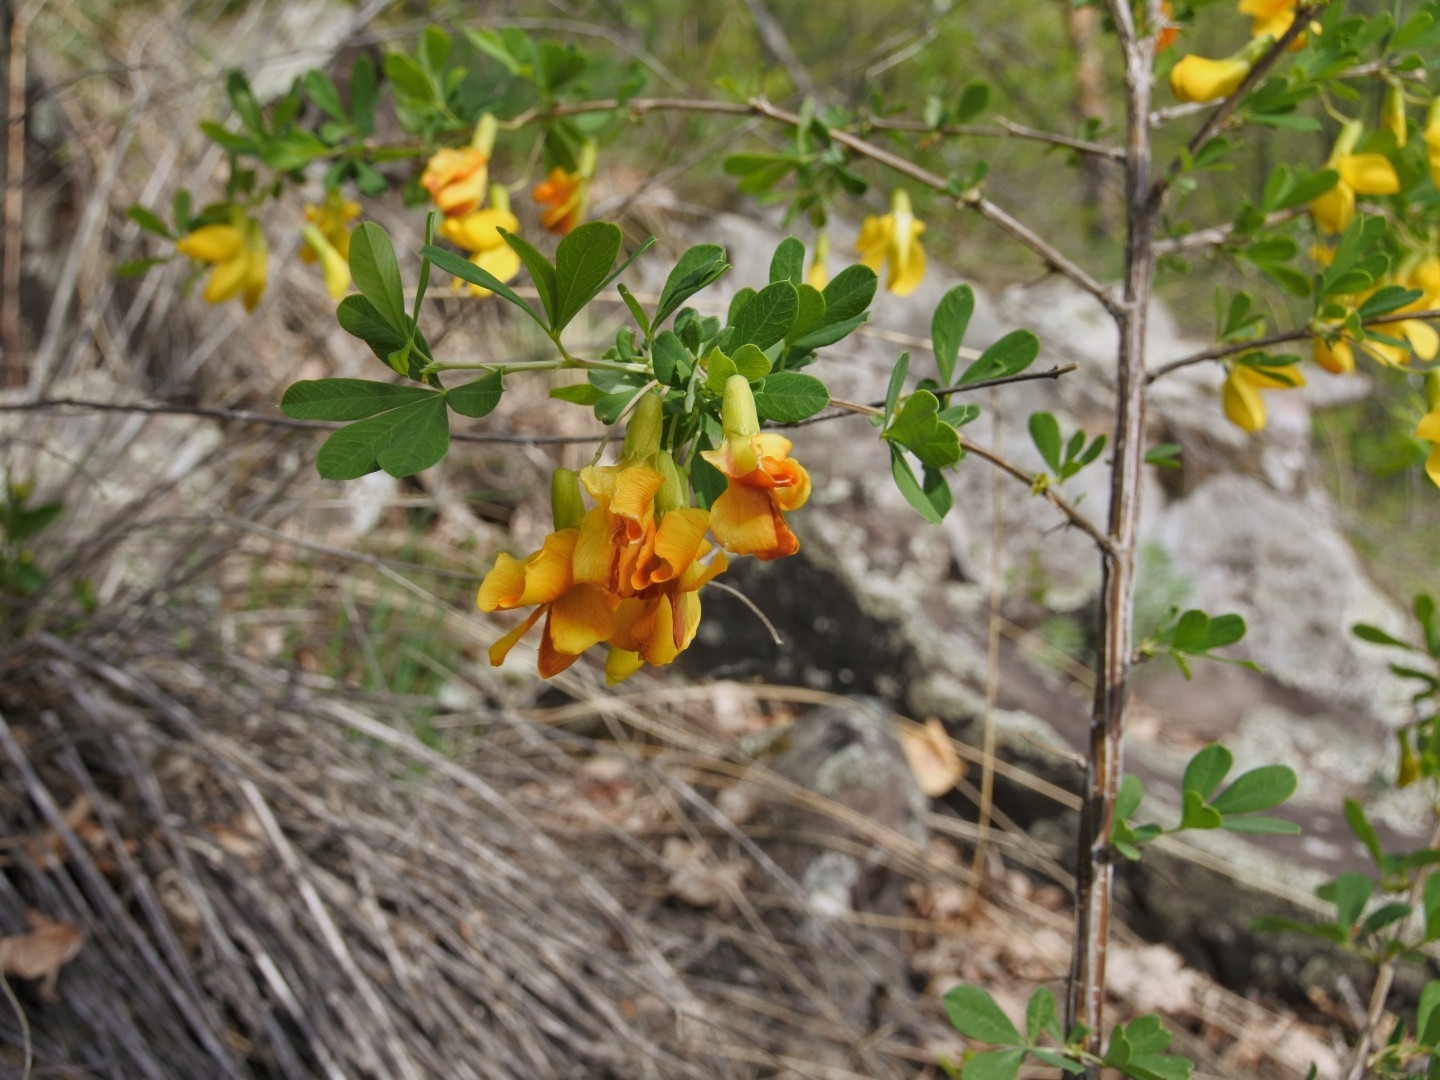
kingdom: Plantae
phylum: Tracheophyta
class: Magnoliopsida
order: Fabales
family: Fabaceae
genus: Caragana
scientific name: Caragana frutex
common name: Russian peashrub
